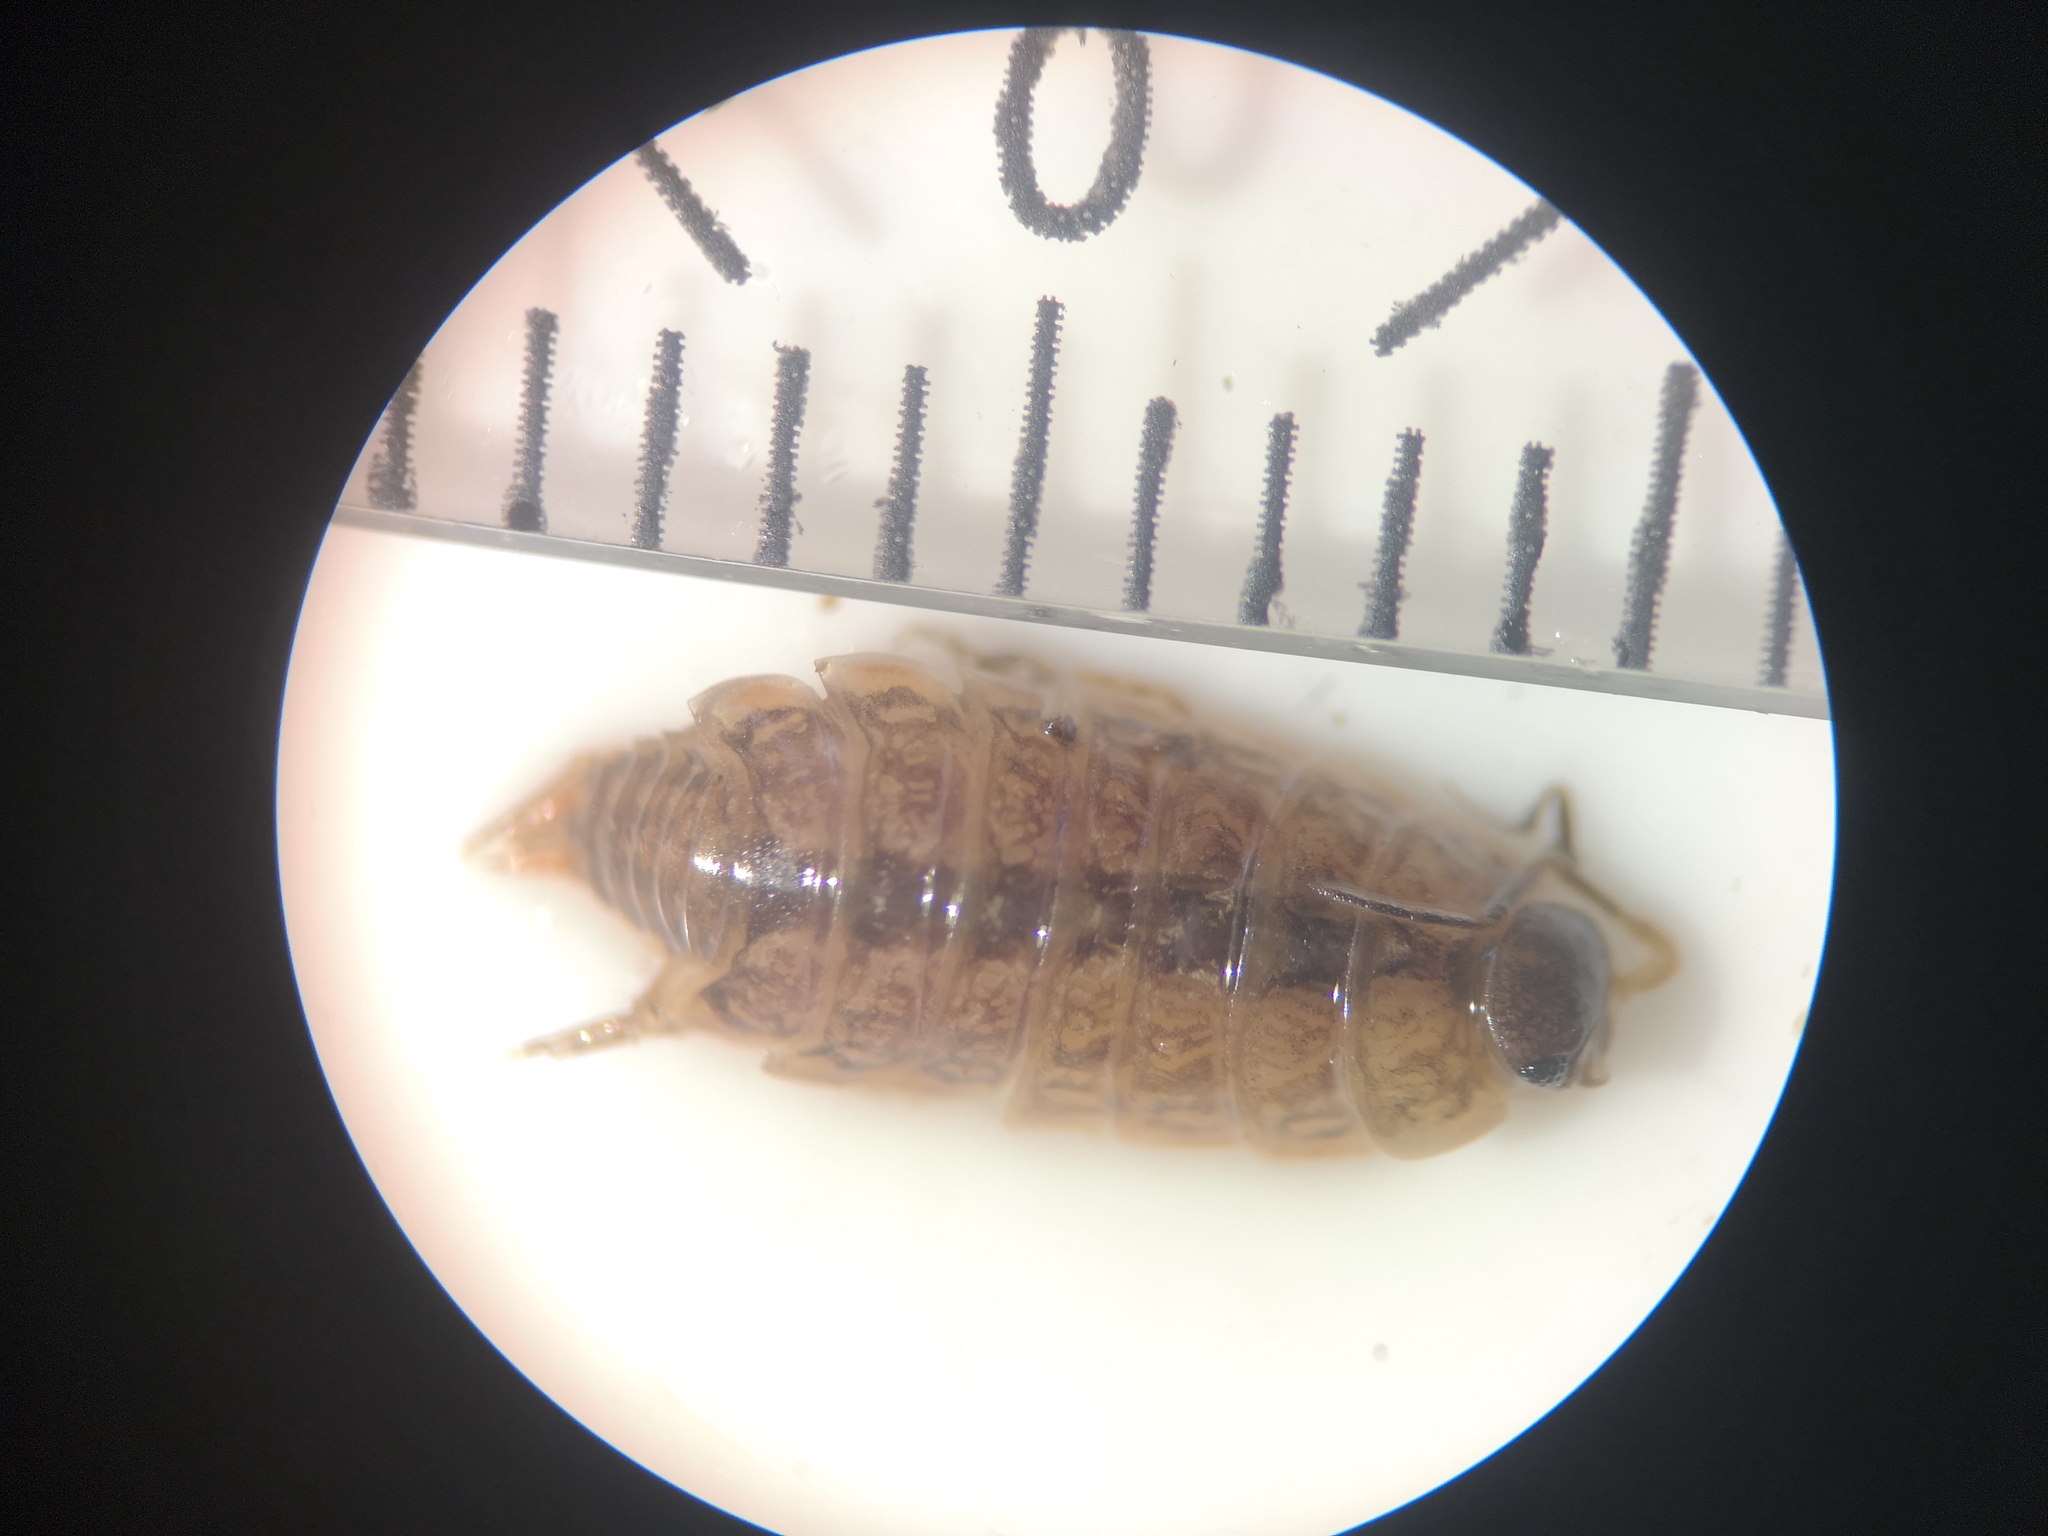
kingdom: Animalia
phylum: Arthropoda
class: Malacostraca
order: Isopoda
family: Philosciidae
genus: Philoscia
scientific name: Philoscia muscorum
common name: Common striped woodlouse
